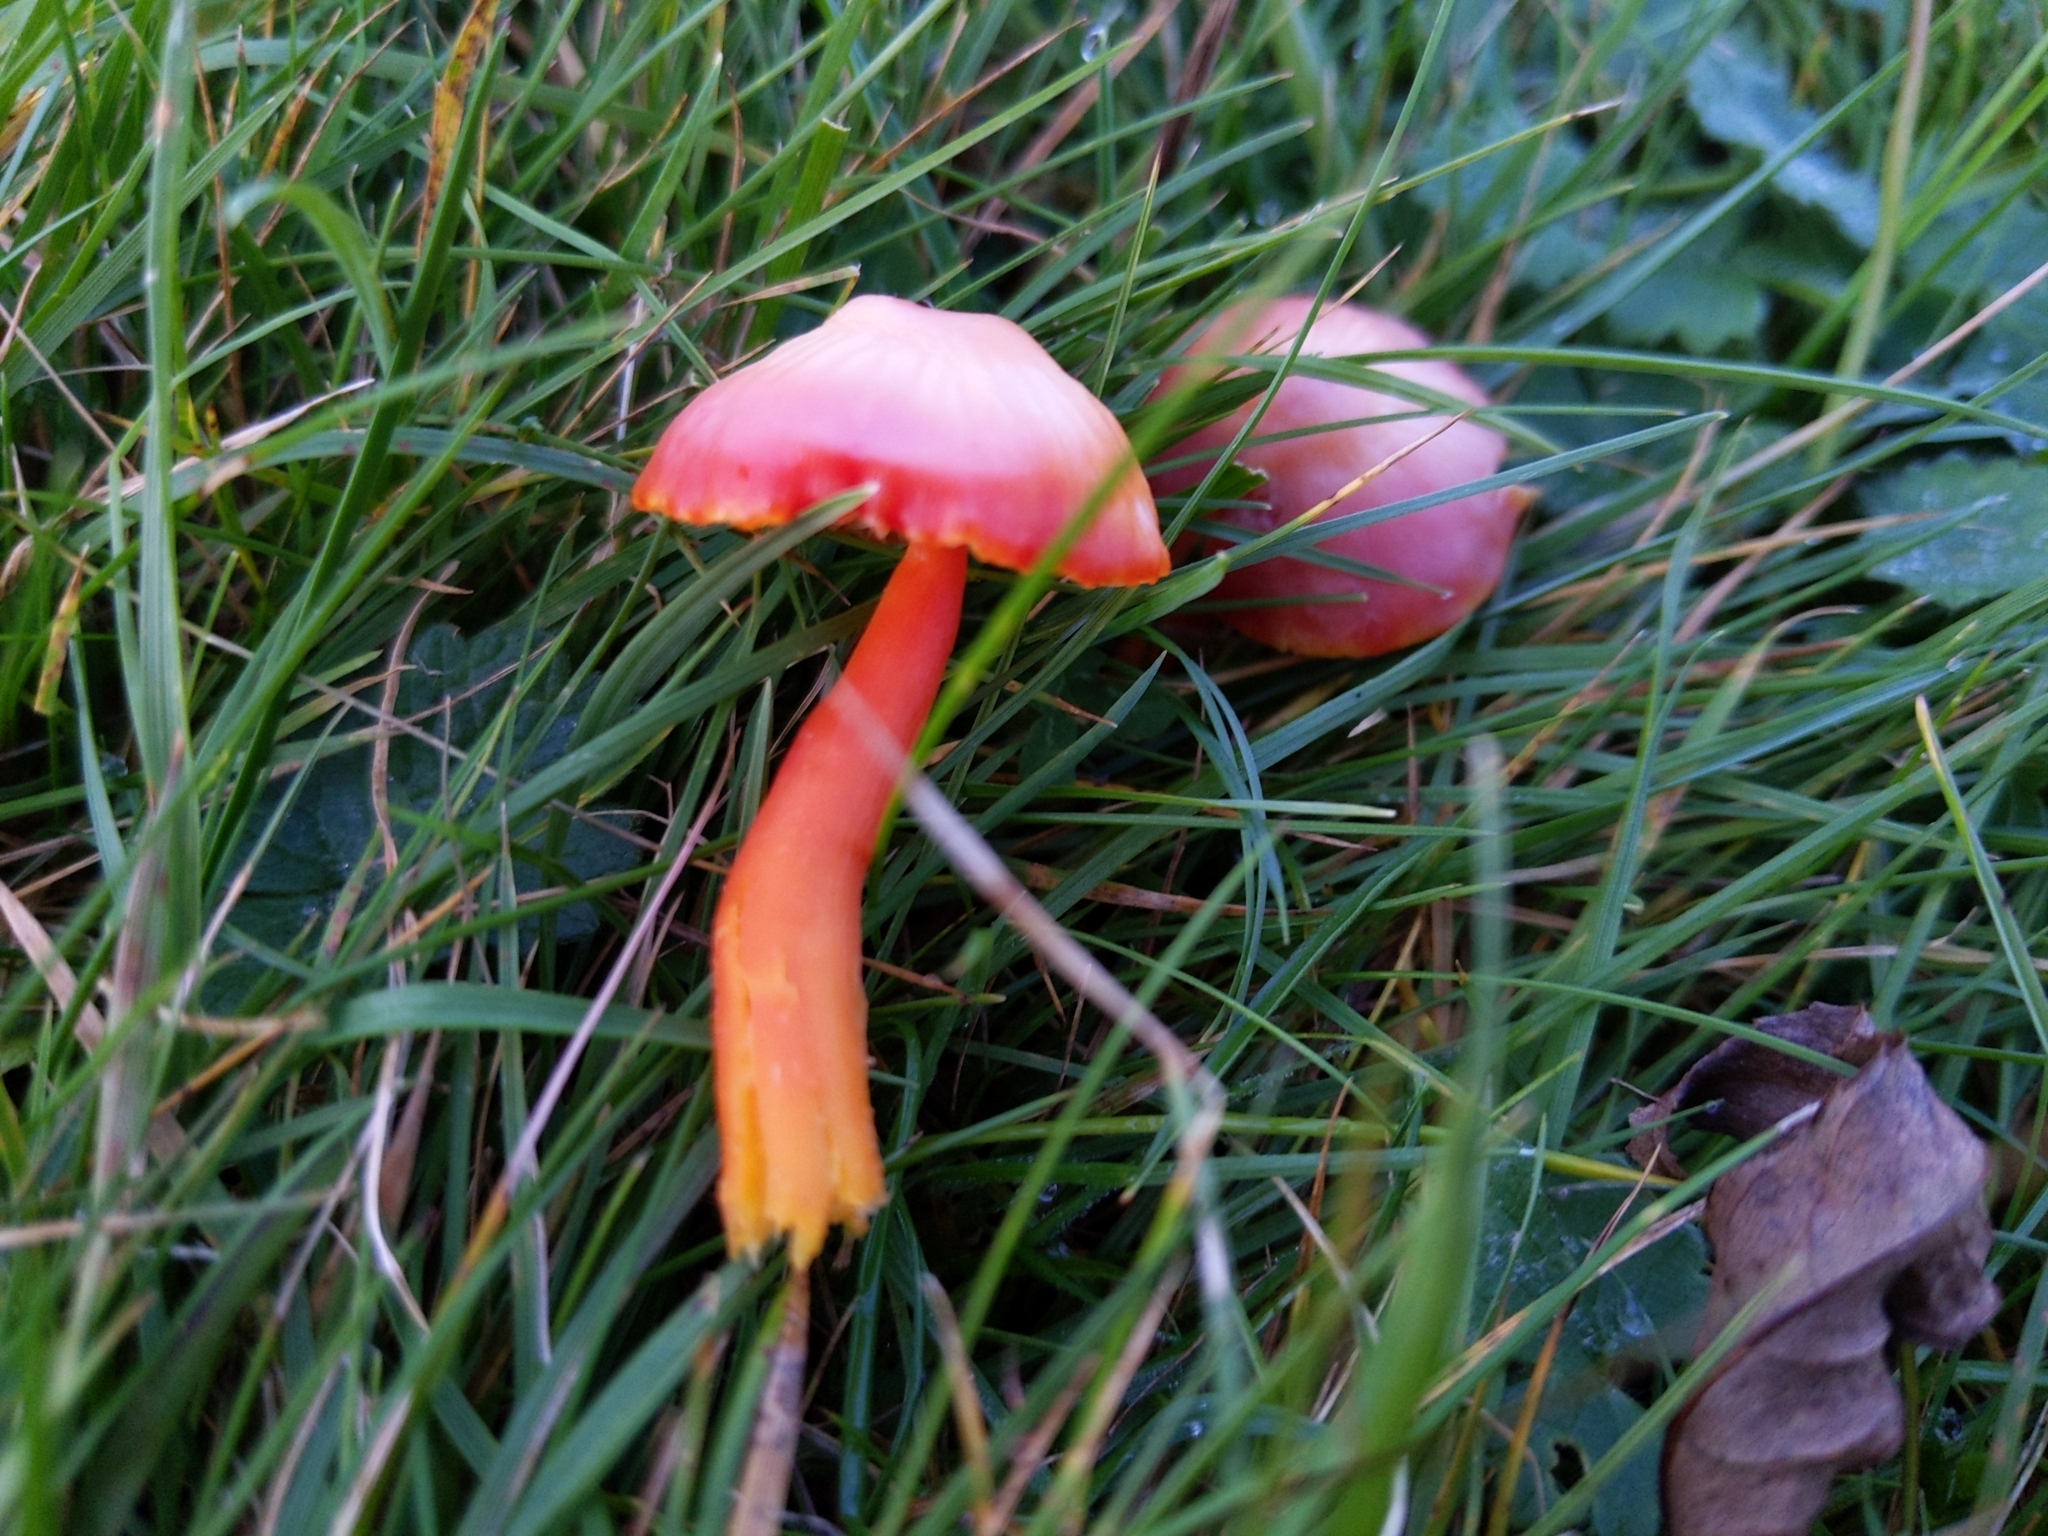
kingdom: Fungi
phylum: Basidiomycota
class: Agaricomycetes
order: Agaricales
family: Hygrophoraceae
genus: Hygrocybe
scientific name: Hygrocybe coccinea
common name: Scarlet hood
